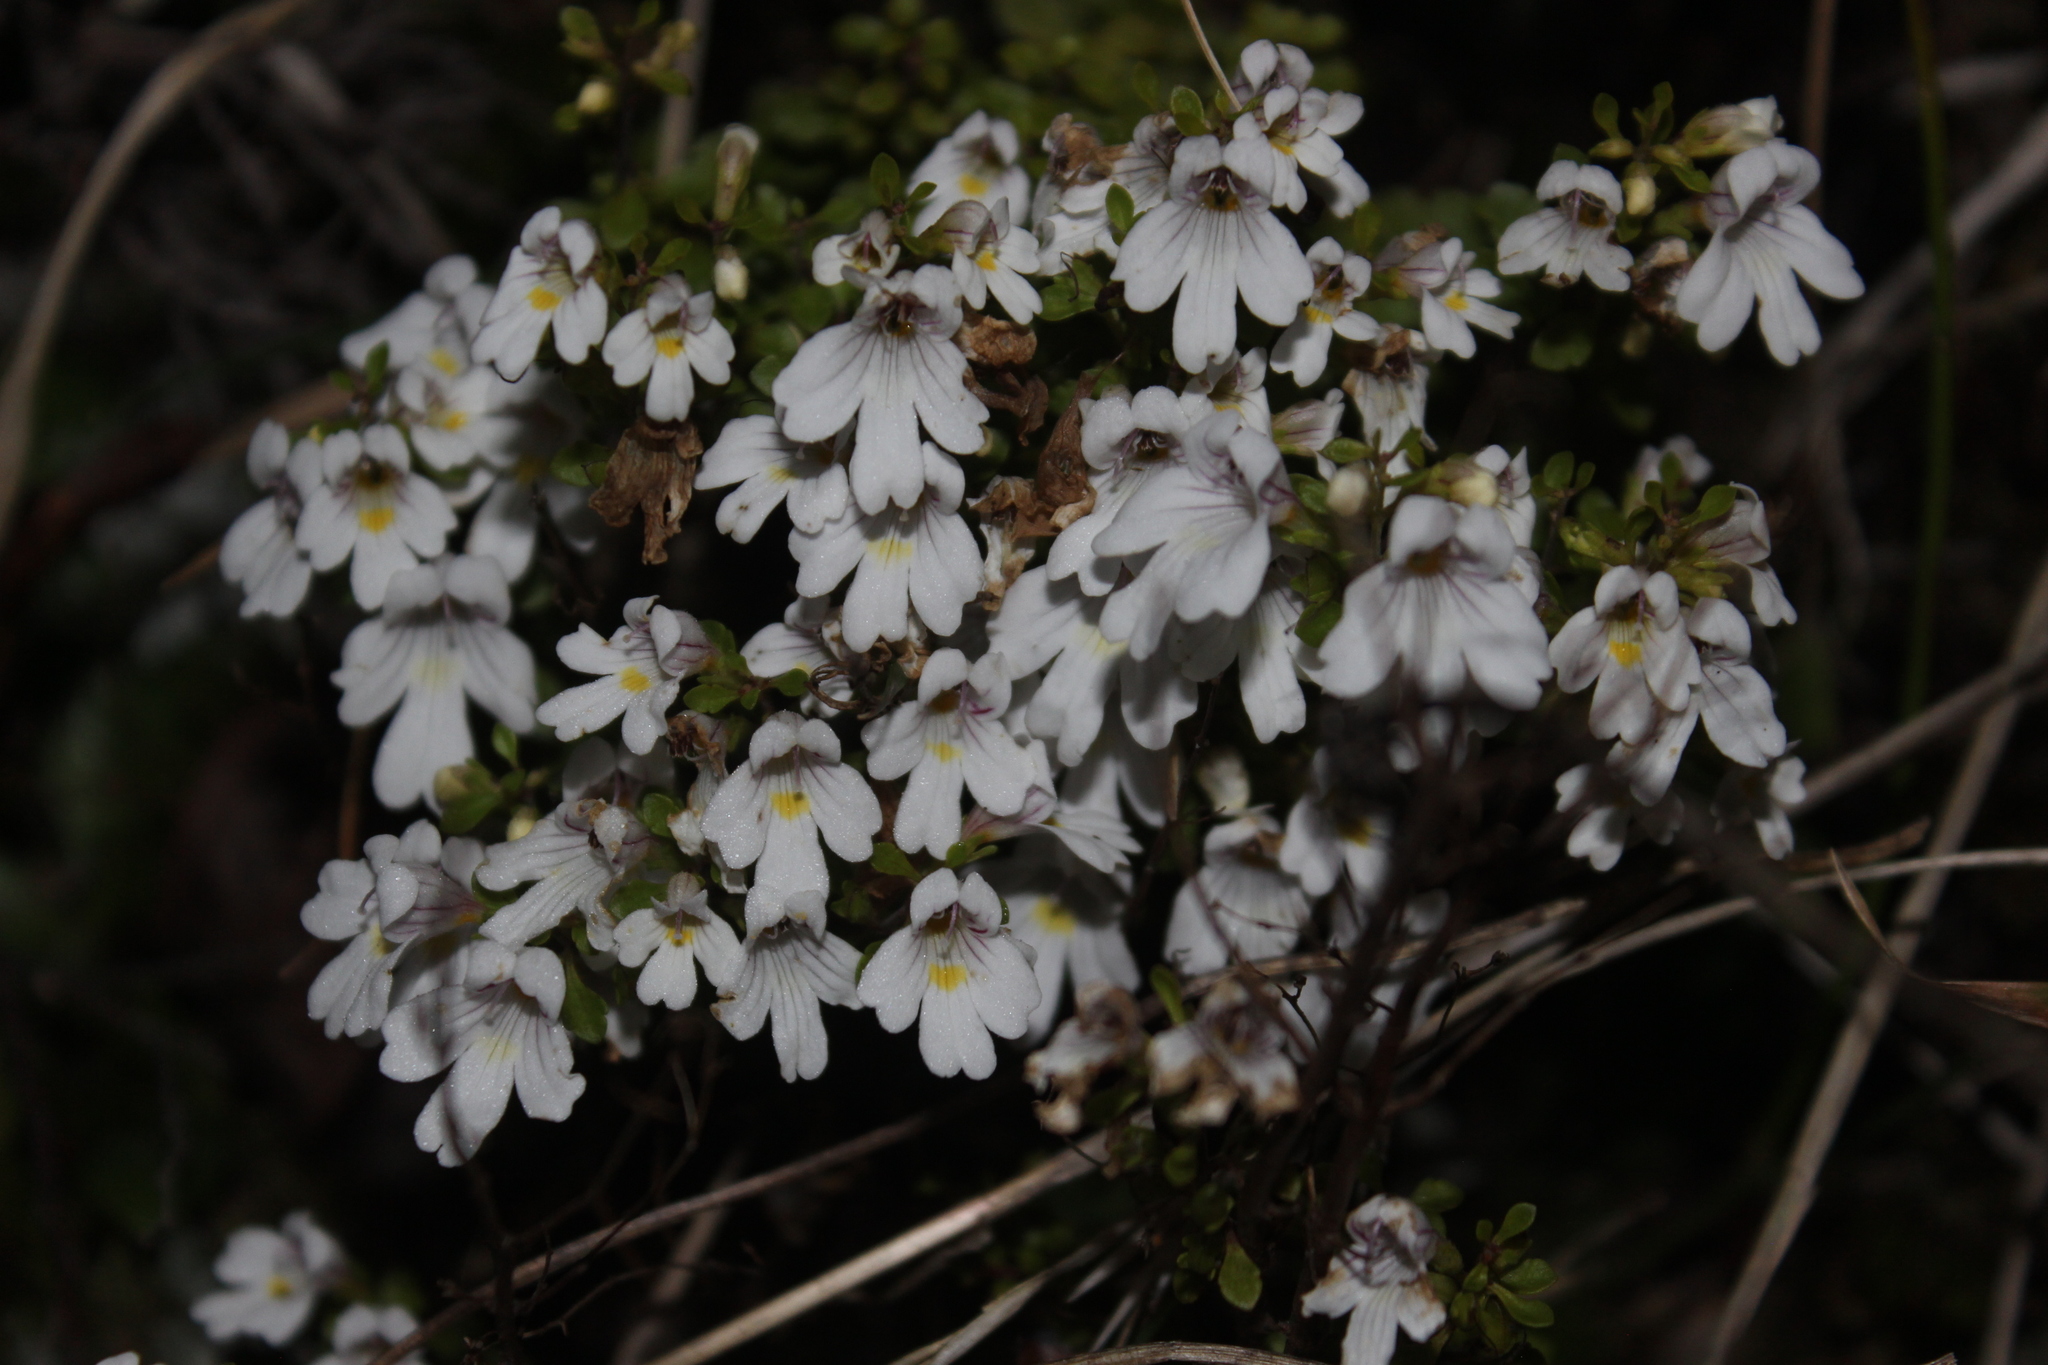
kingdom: Plantae
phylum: Tracheophyta
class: Magnoliopsida
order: Lamiales
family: Orobanchaceae
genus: Euphrasia
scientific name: Euphrasia cuneata
